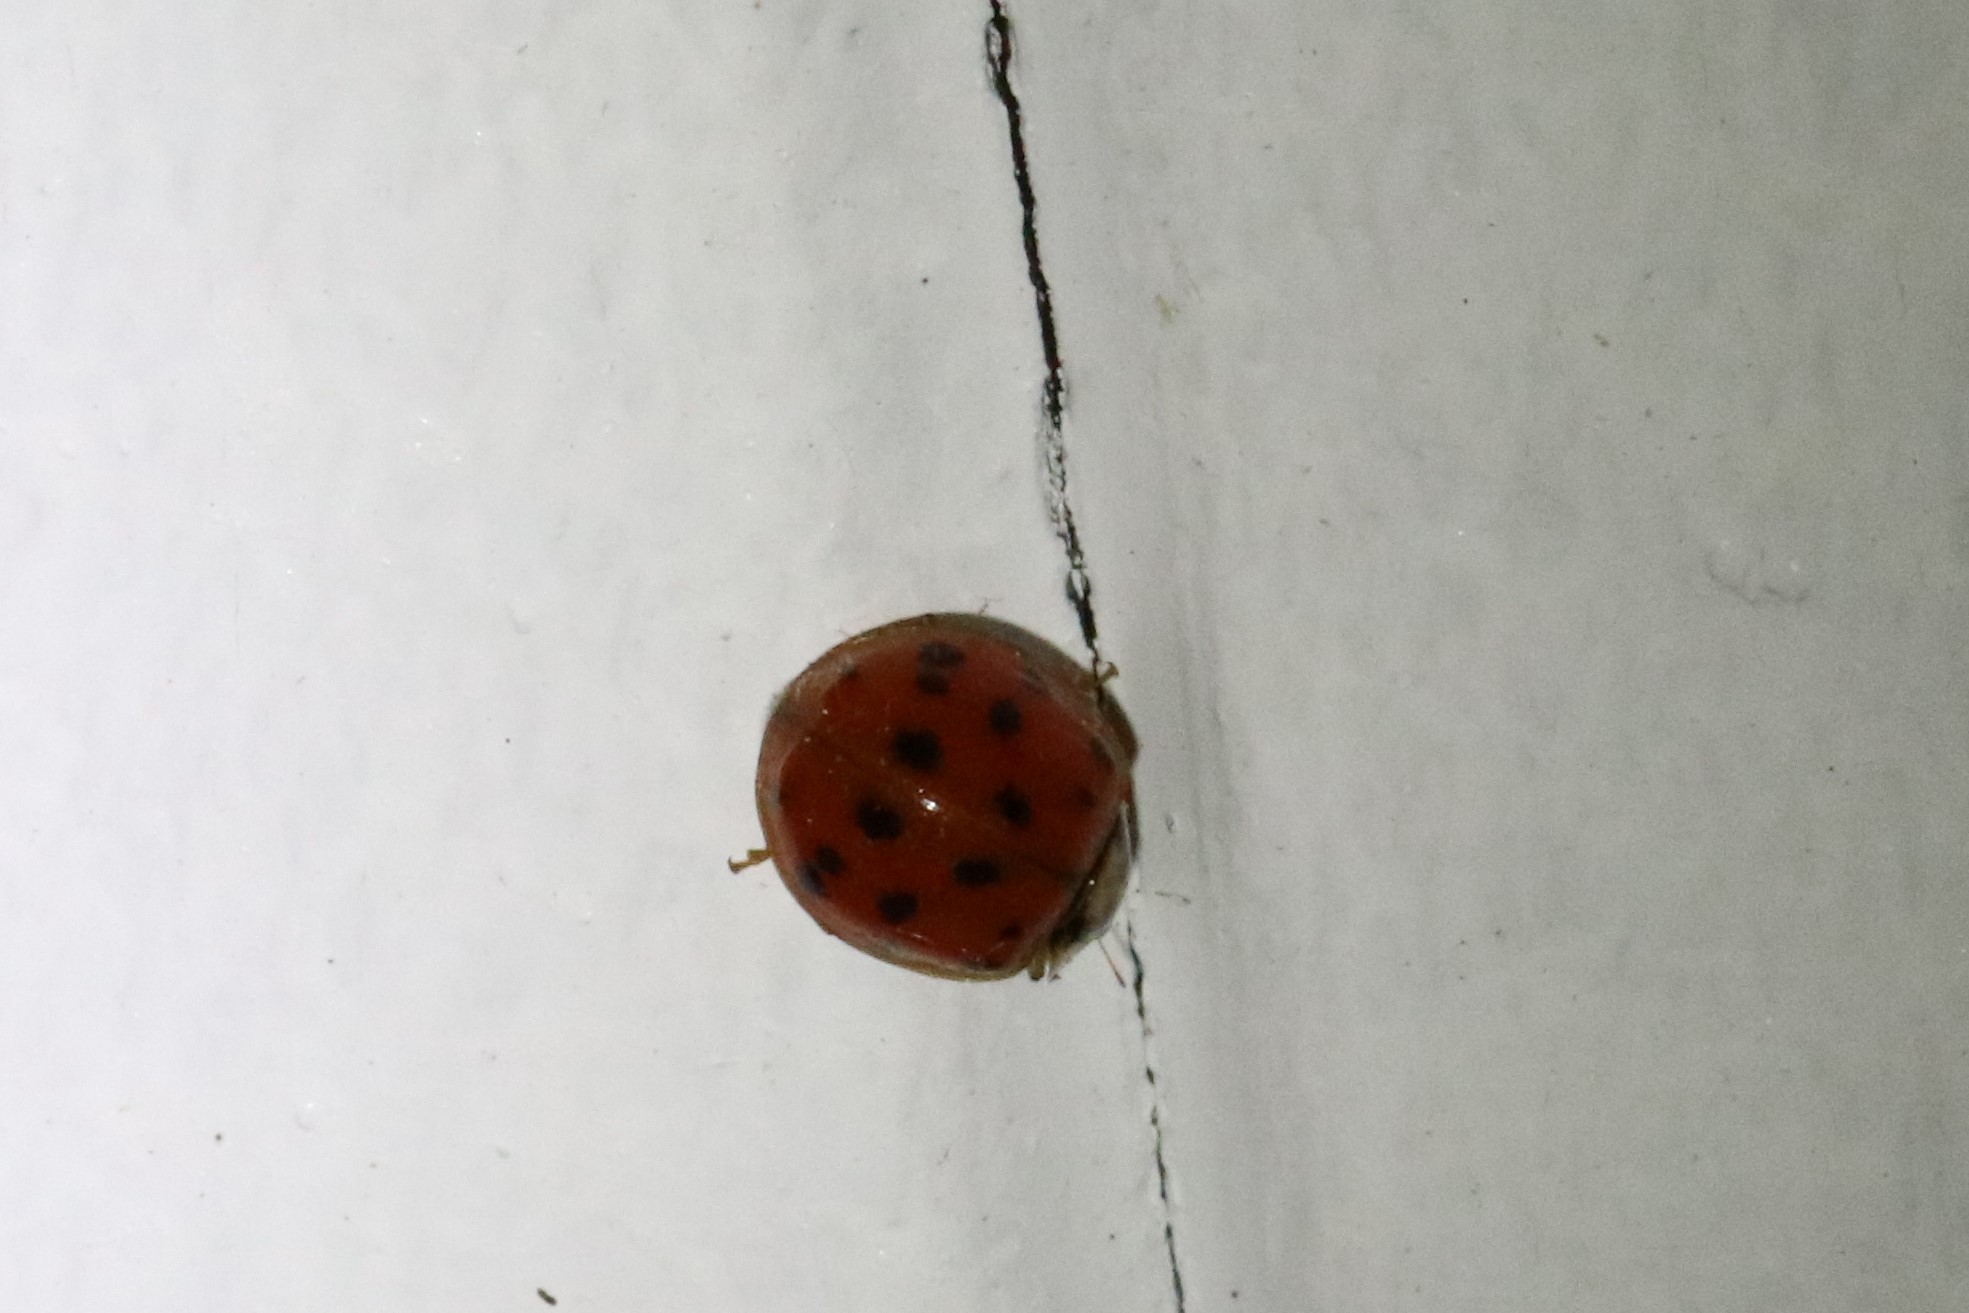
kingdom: Animalia
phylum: Arthropoda
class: Insecta
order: Coleoptera
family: Coccinellidae
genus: Harmonia
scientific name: Harmonia axyridis
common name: Harlequin ladybird
